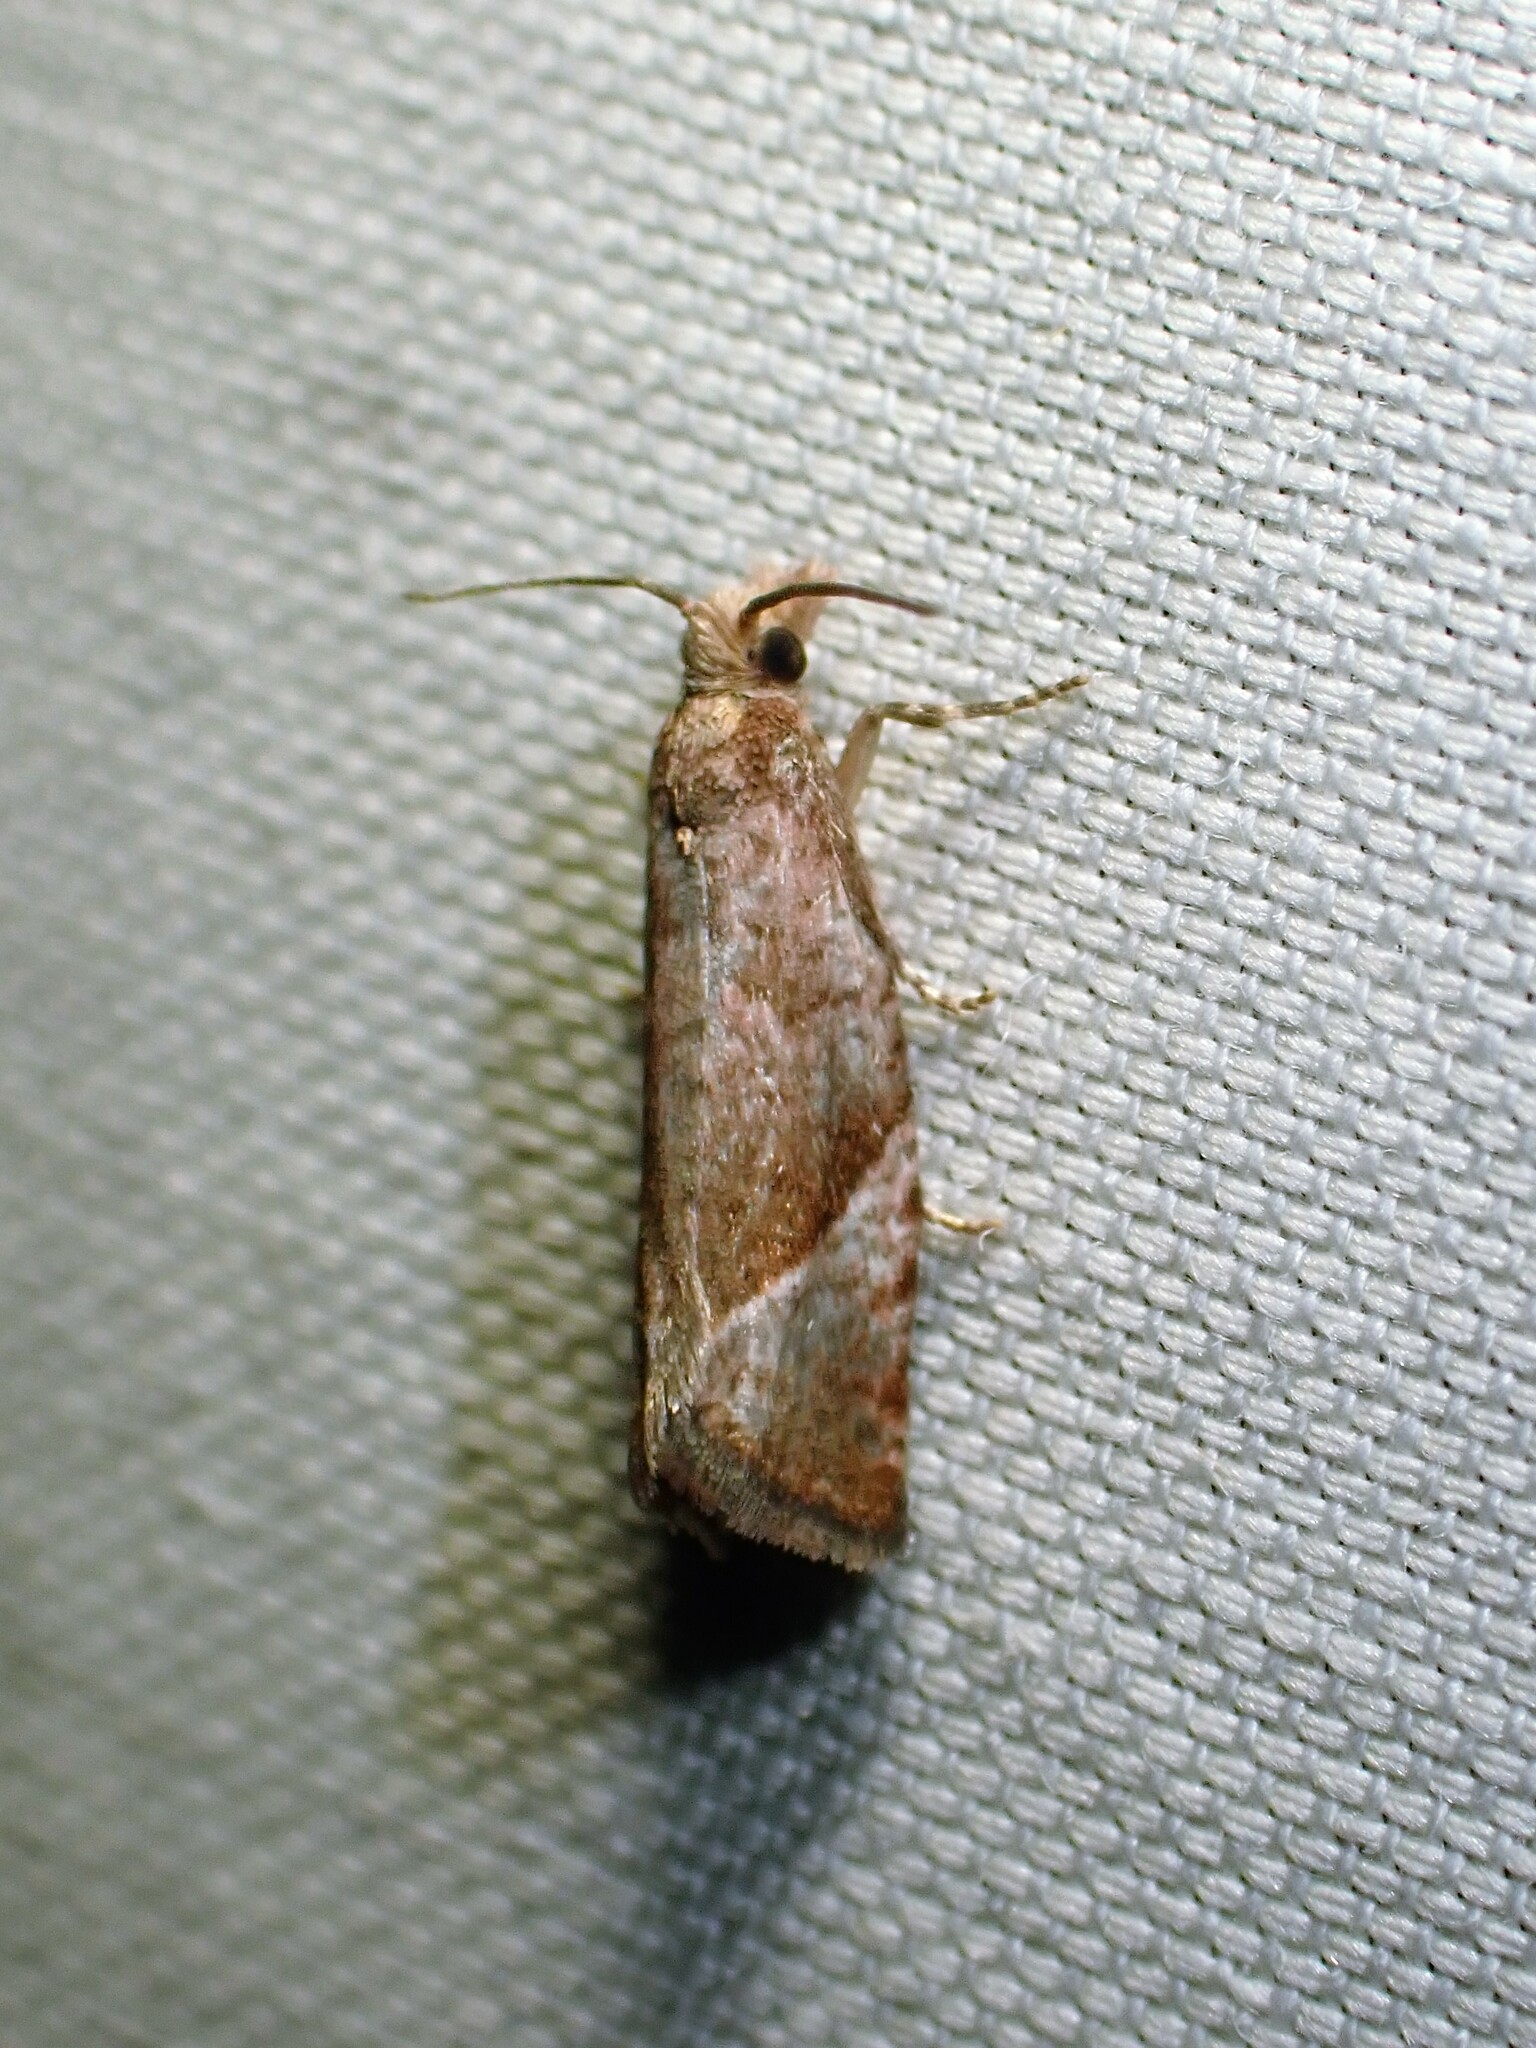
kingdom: Animalia
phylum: Arthropoda
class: Insecta
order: Lepidoptera
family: Tortricidae
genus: Pelochrista
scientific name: Pelochrista derelicta
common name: Derelict pelochrista moth
